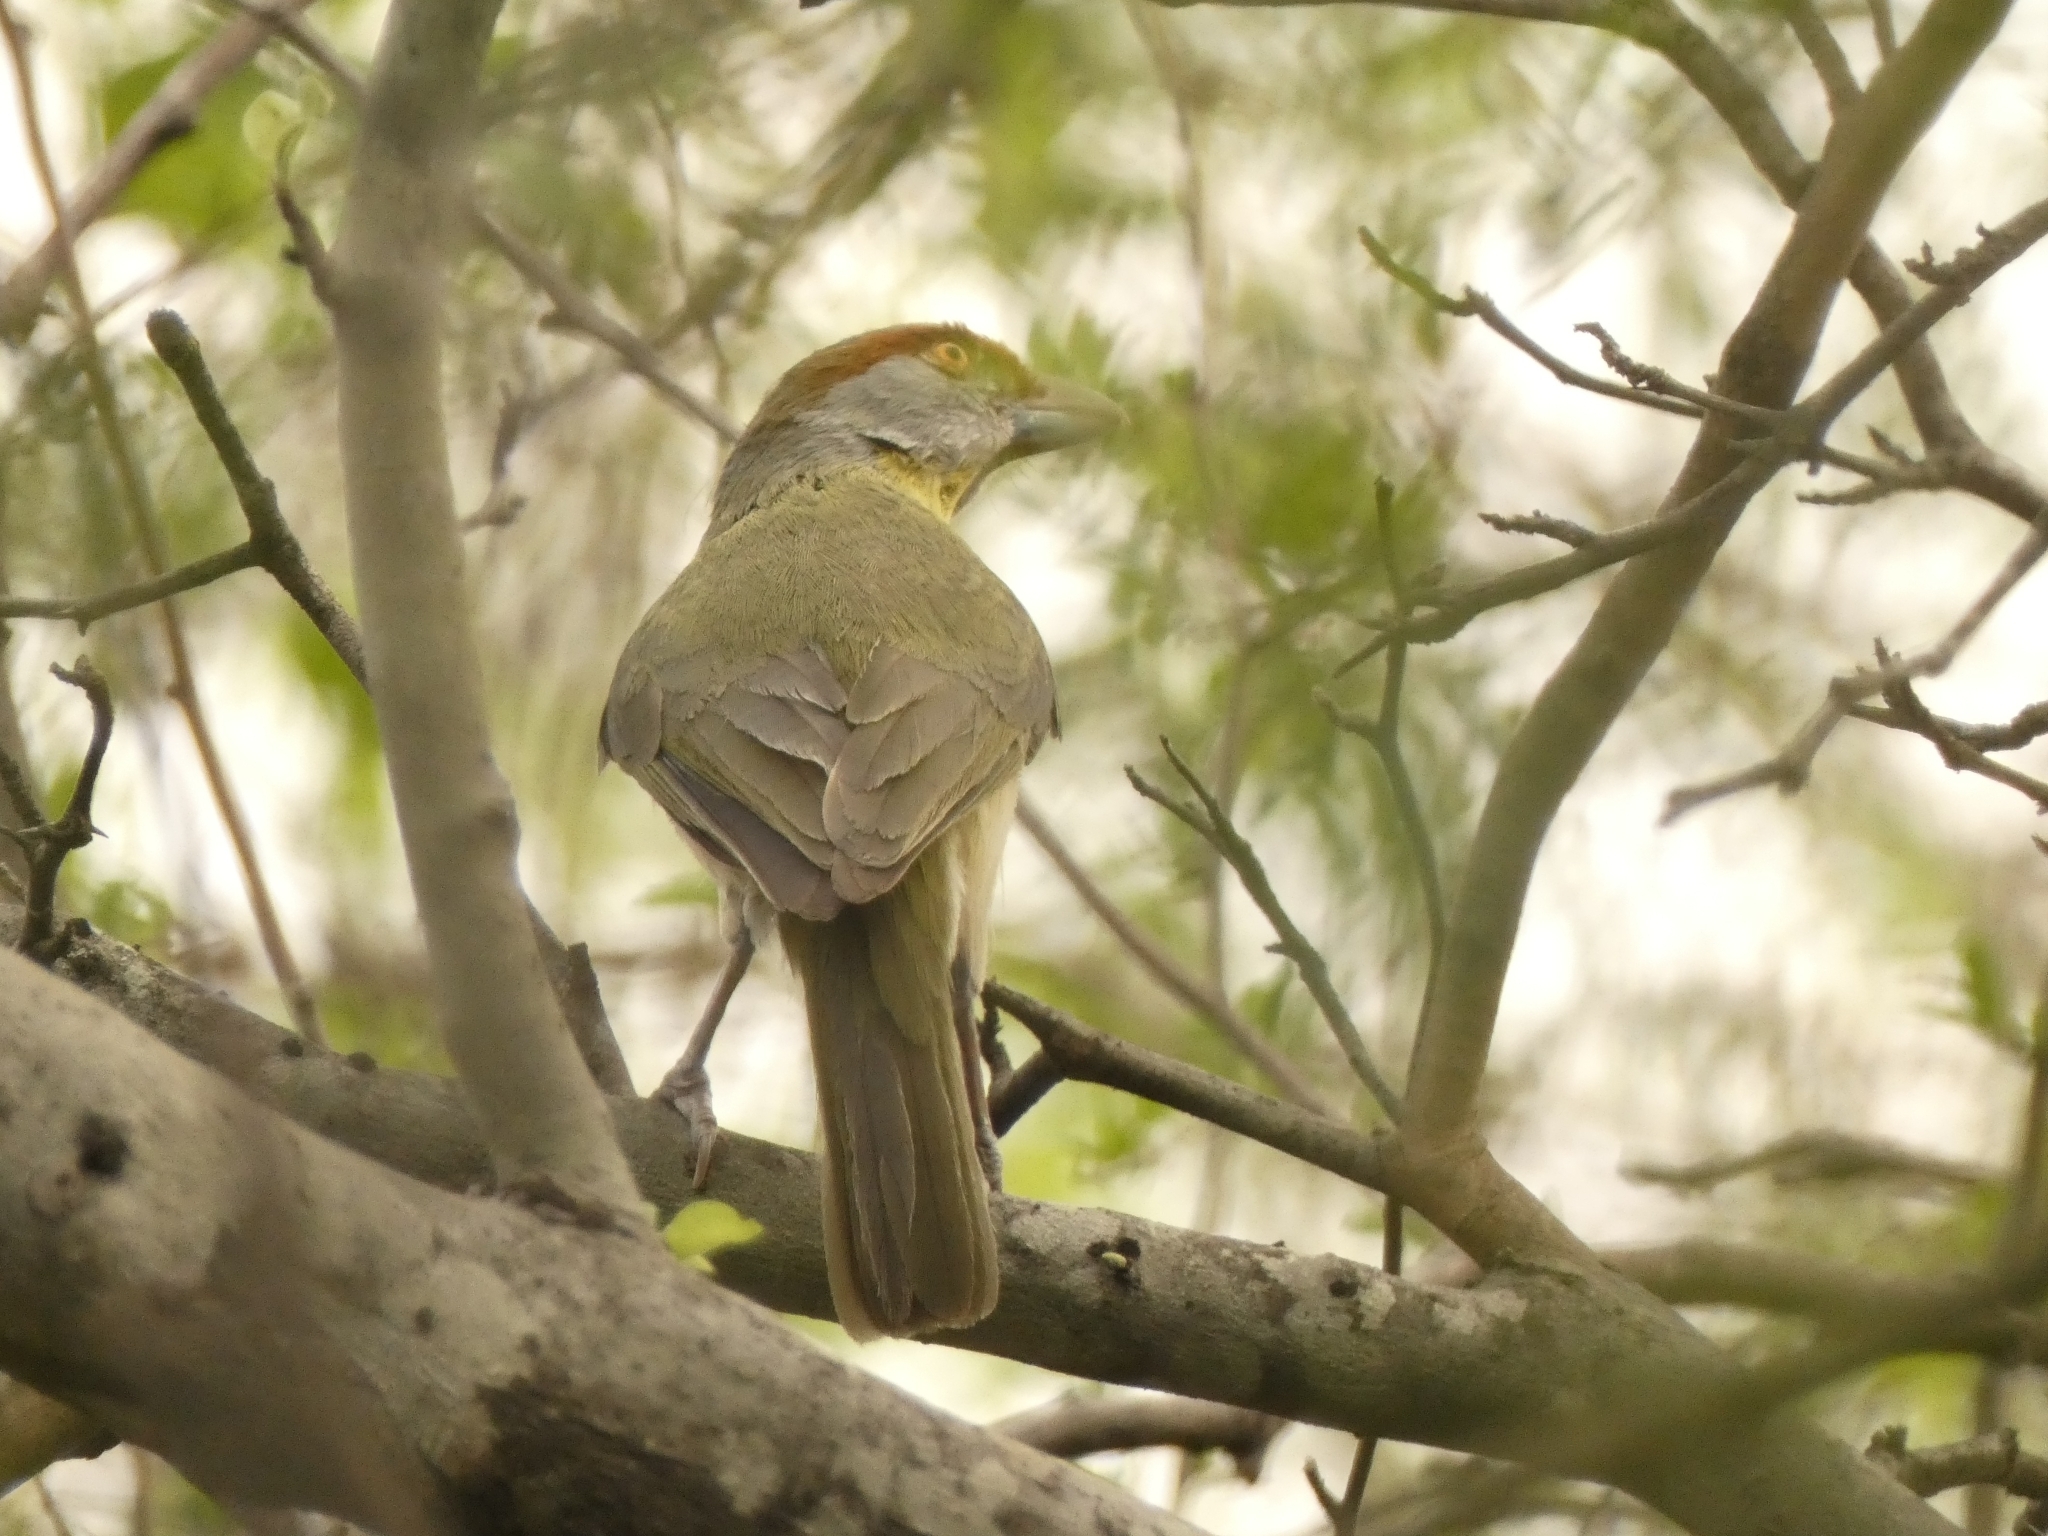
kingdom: Animalia
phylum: Chordata
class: Aves
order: Passeriformes
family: Vireonidae
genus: Cyclarhis
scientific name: Cyclarhis gujanensis
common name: Rufous-browed peppershrike
